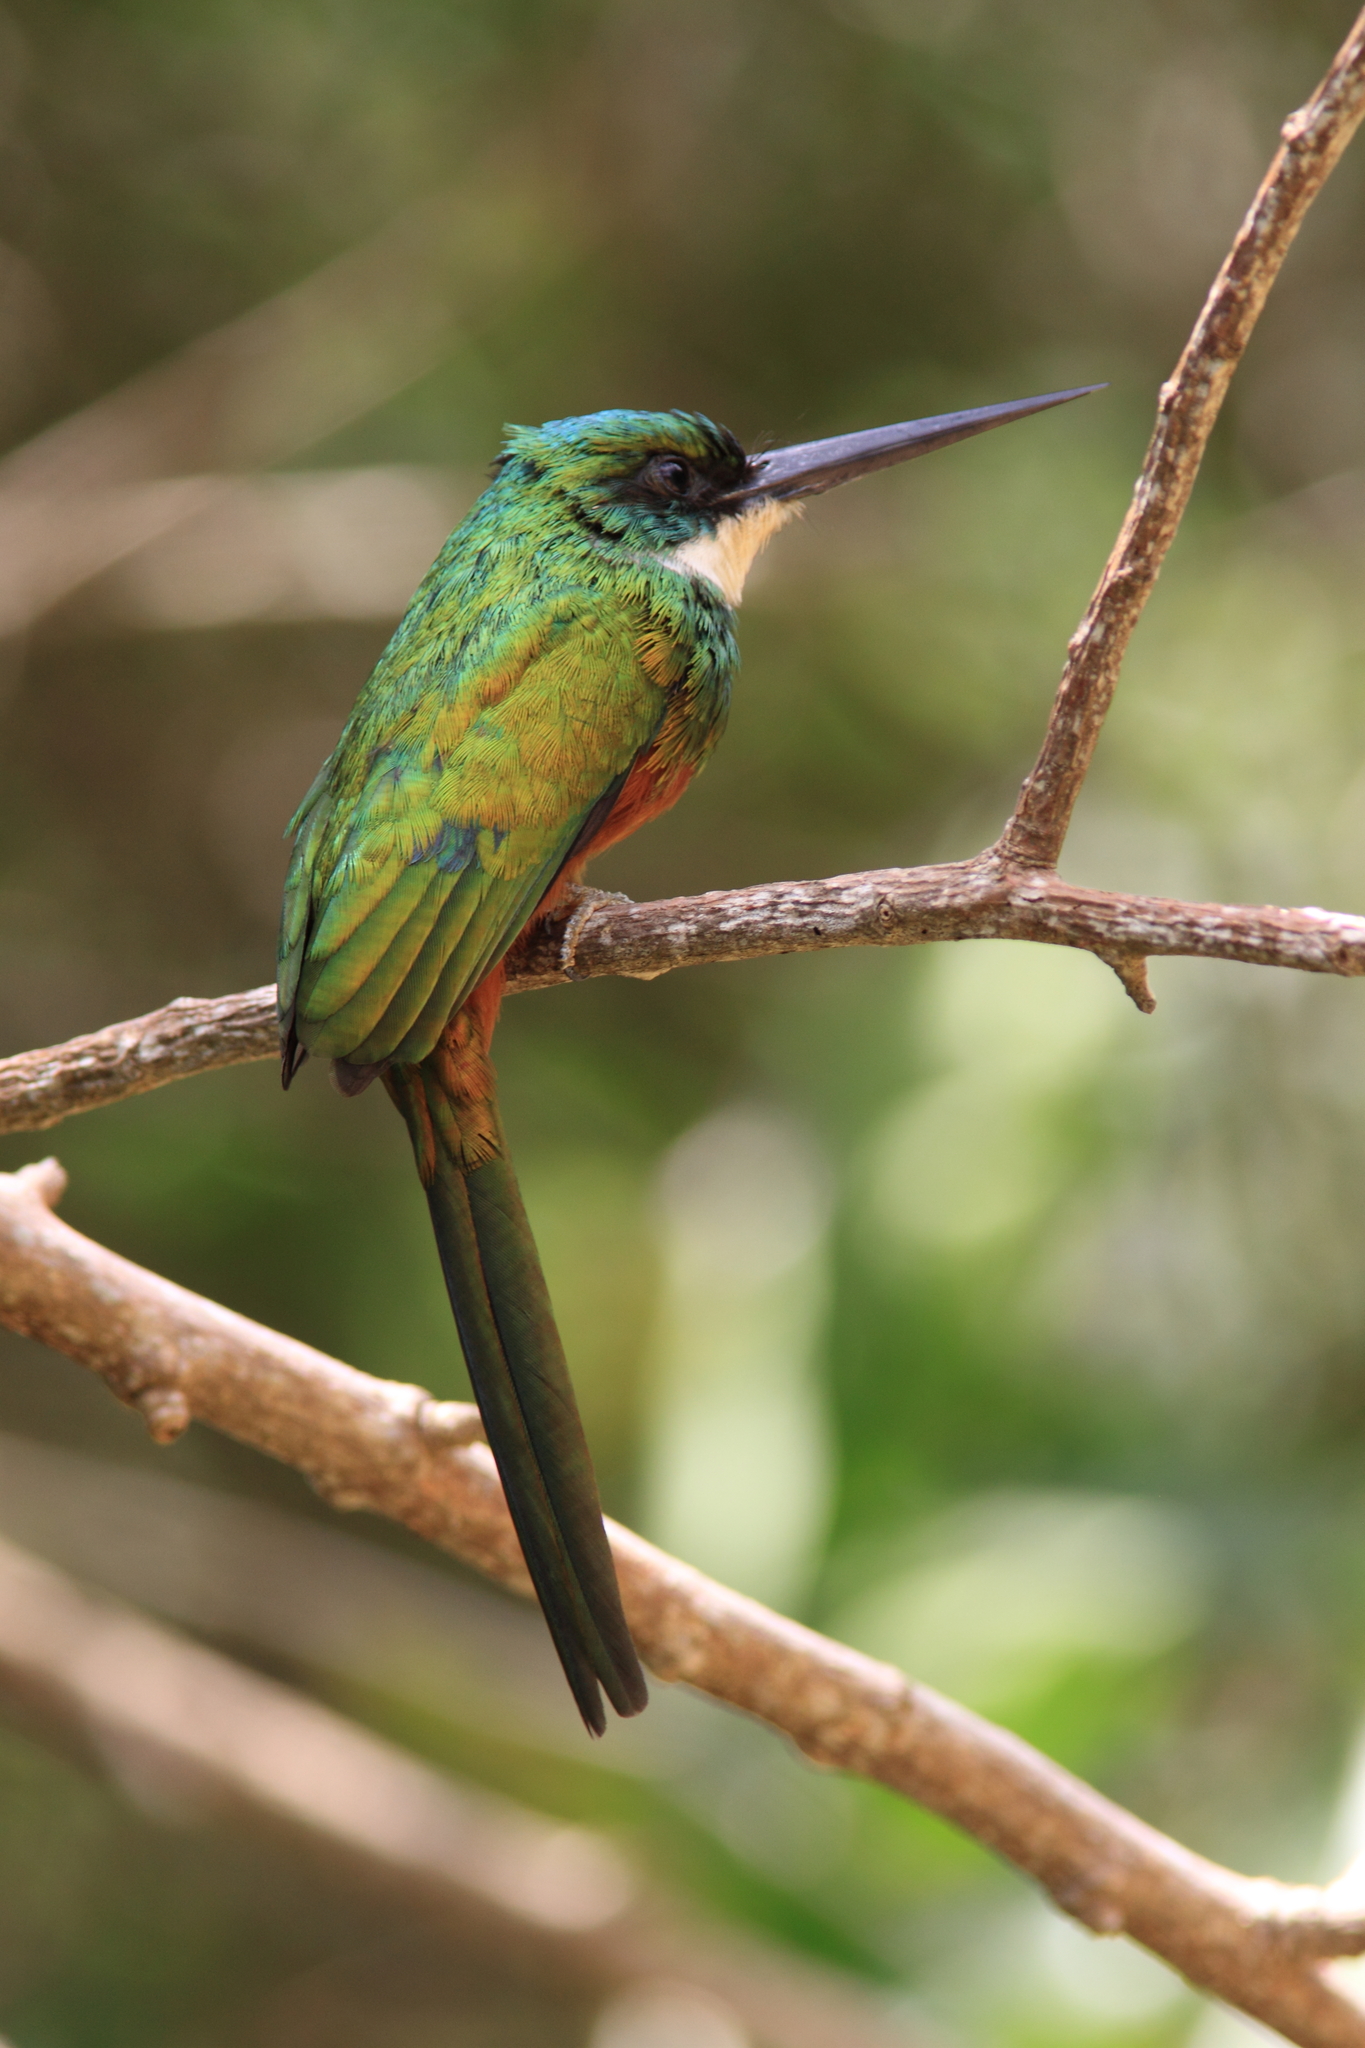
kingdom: Animalia
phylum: Chordata
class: Aves
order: Piciformes
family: Galbulidae
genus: Galbula
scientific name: Galbula ruficauda
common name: Rufous-tailed jacamar
